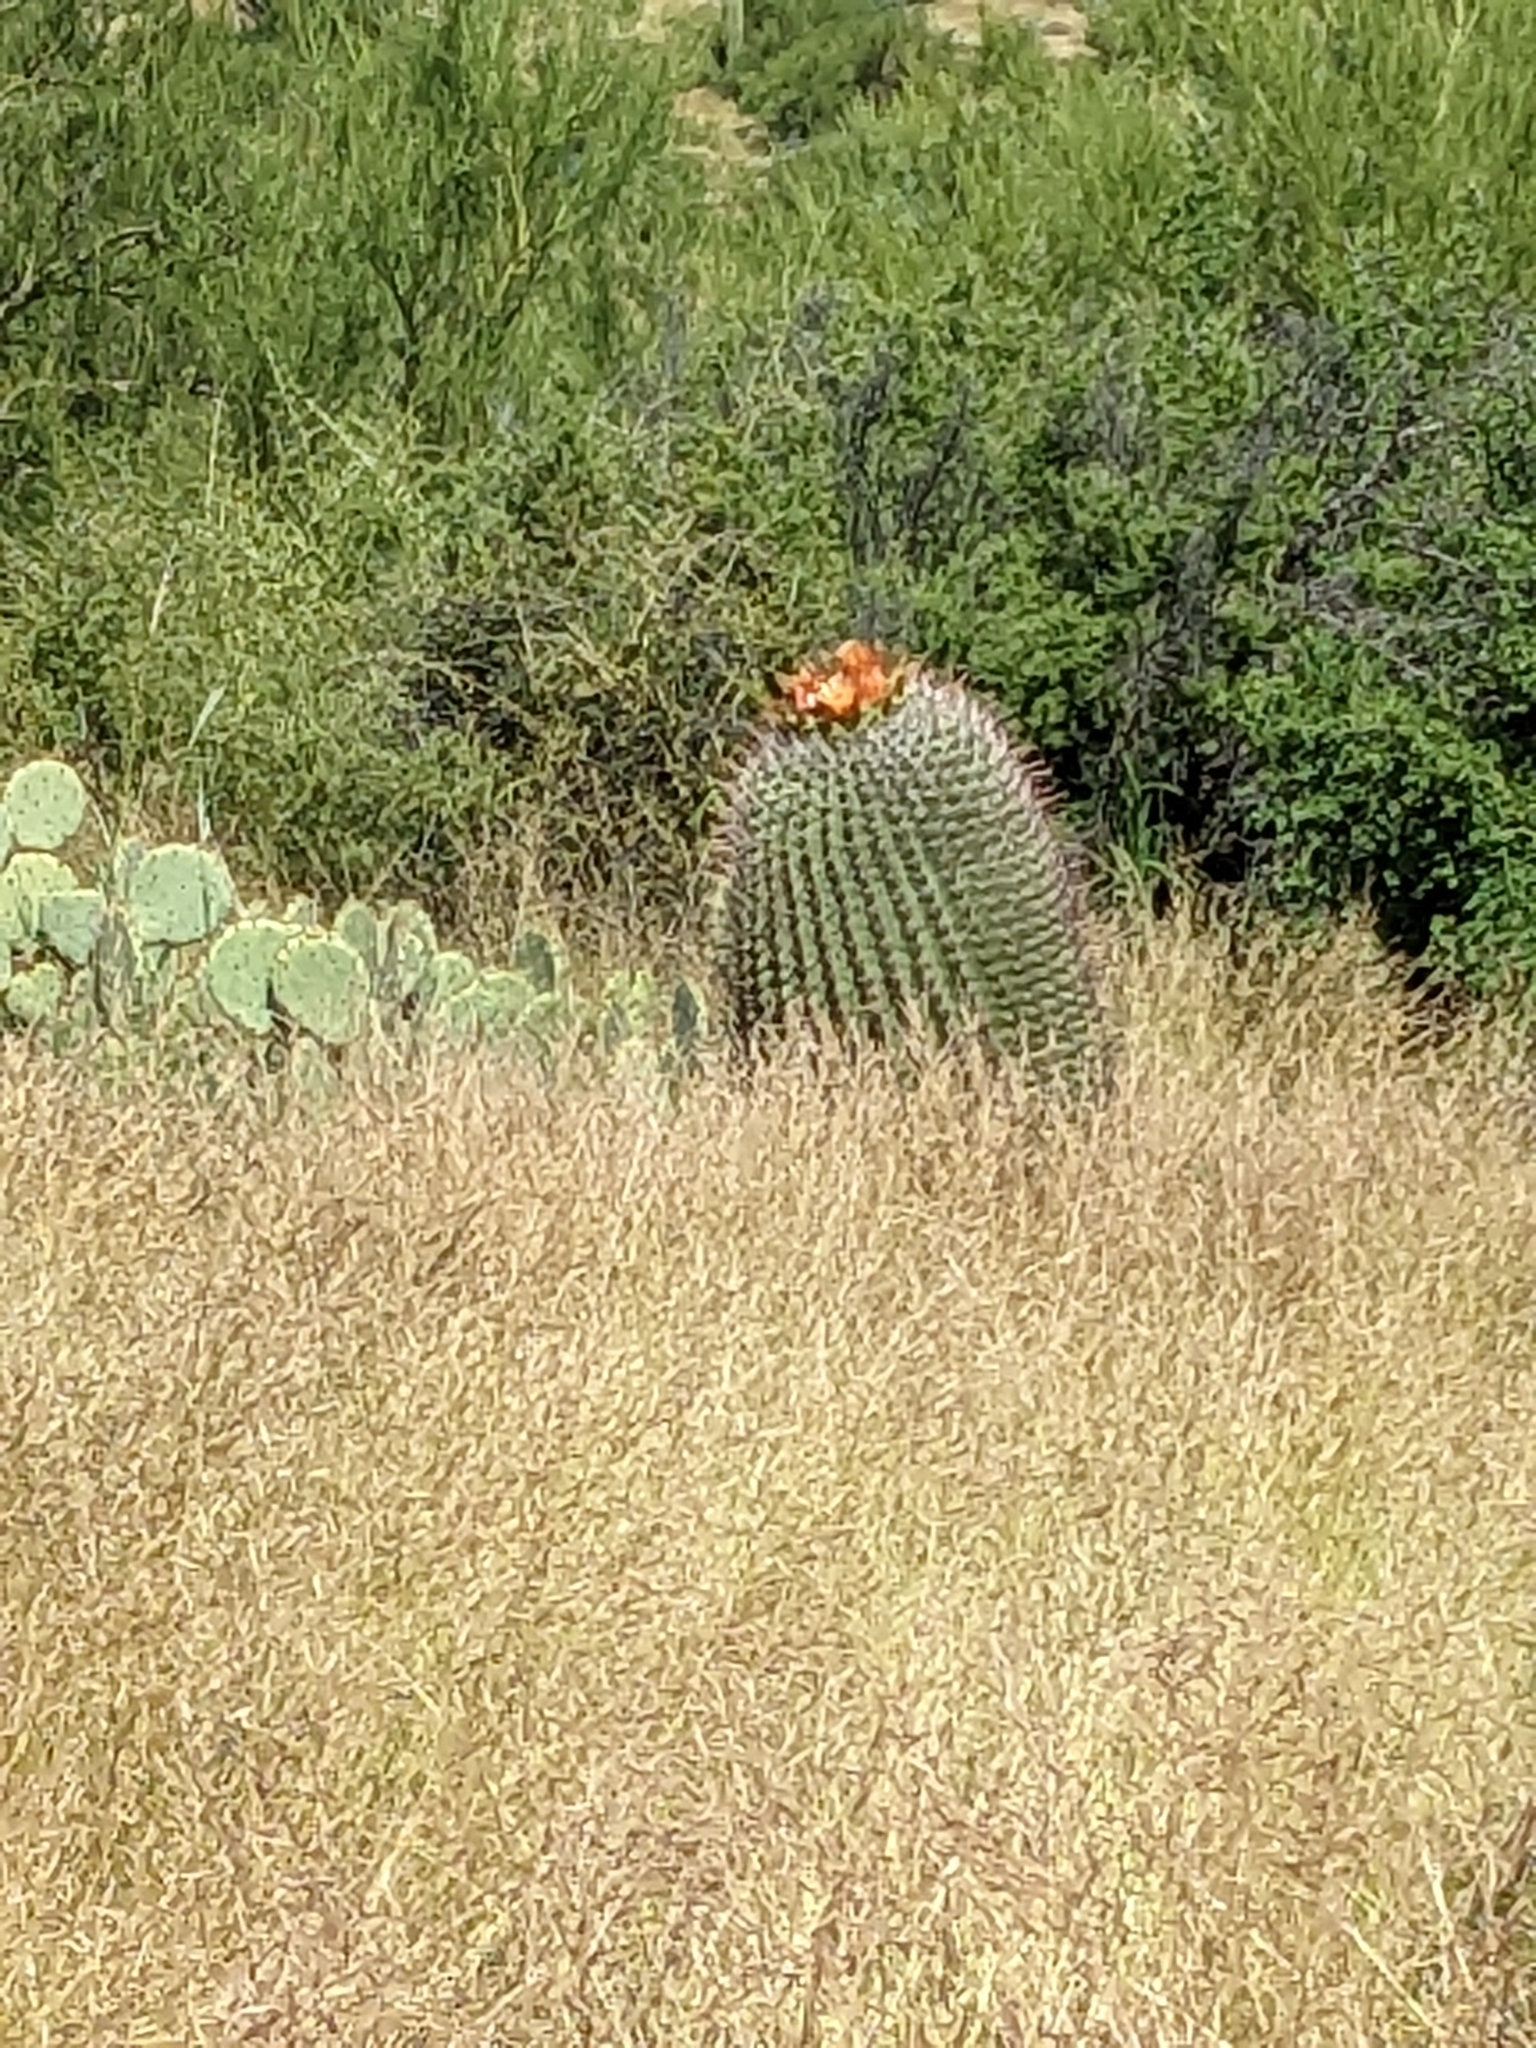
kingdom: Plantae
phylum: Tracheophyta
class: Magnoliopsida
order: Caryophyllales
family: Cactaceae
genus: Ferocactus
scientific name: Ferocactus wislizeni
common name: Candy barrel cactus
